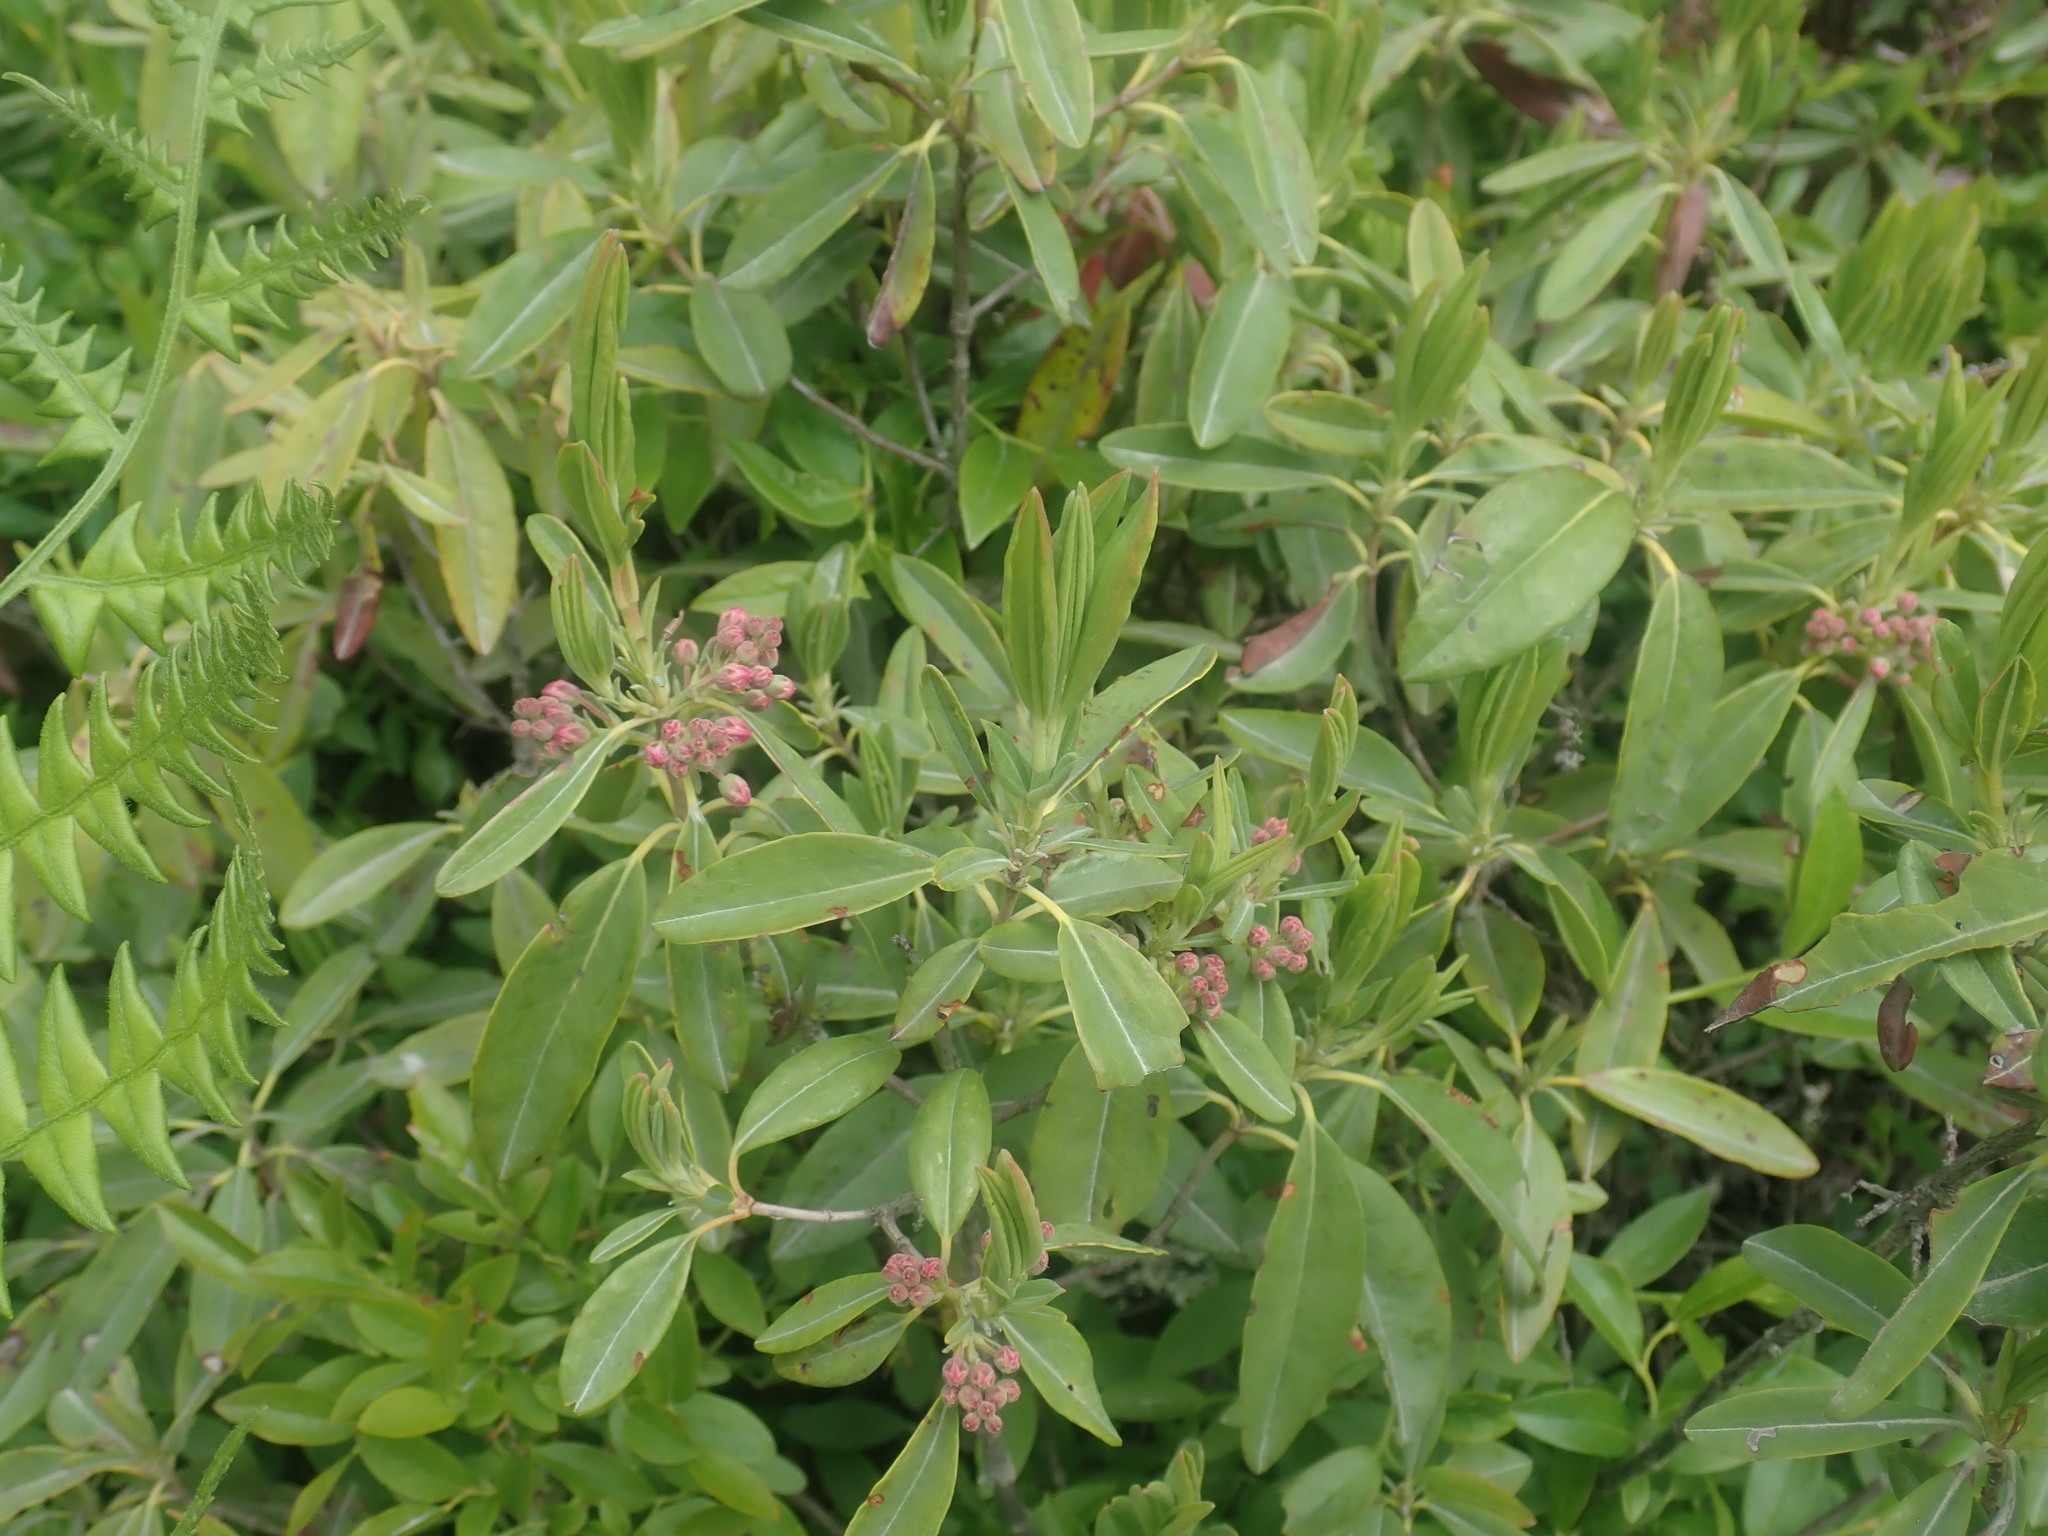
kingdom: Plantae
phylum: Tracheophyta
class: Magnoliopsida
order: Ericales
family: Ericaceae
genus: Kalmia
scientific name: Kalmia angustifolia
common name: Sheep-laurel
